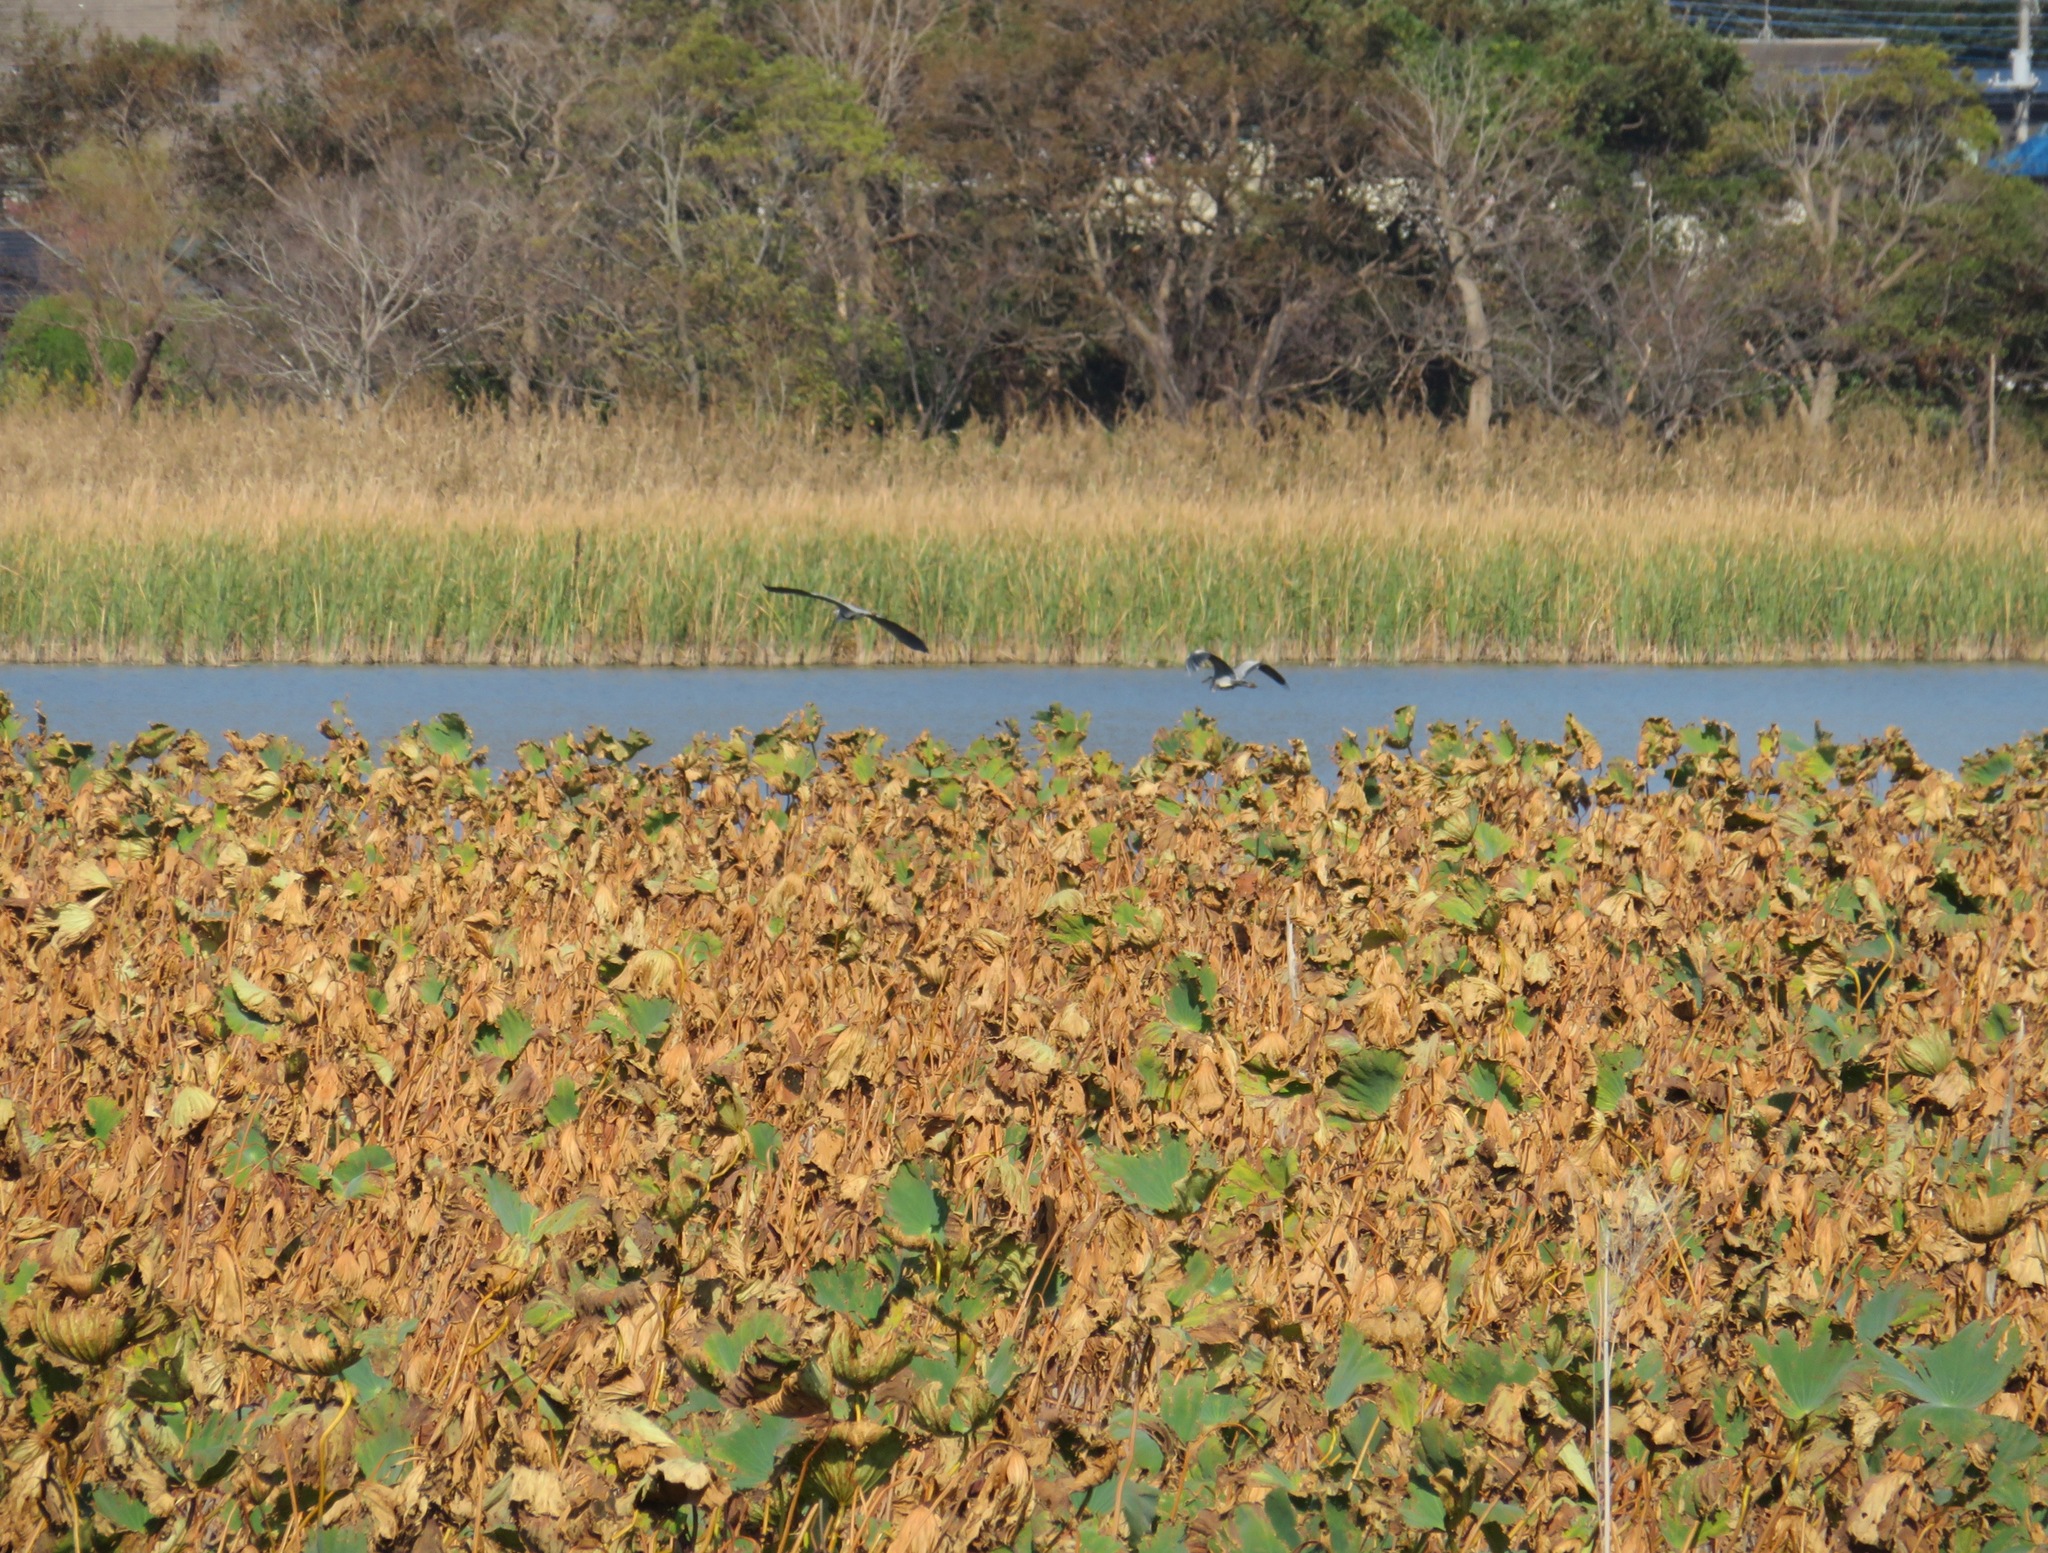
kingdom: Animalia
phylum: Chordata
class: Aves
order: Pelecaniformes
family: Ardeidae
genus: Ardea
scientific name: Ardea cinerea
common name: Grey heron
